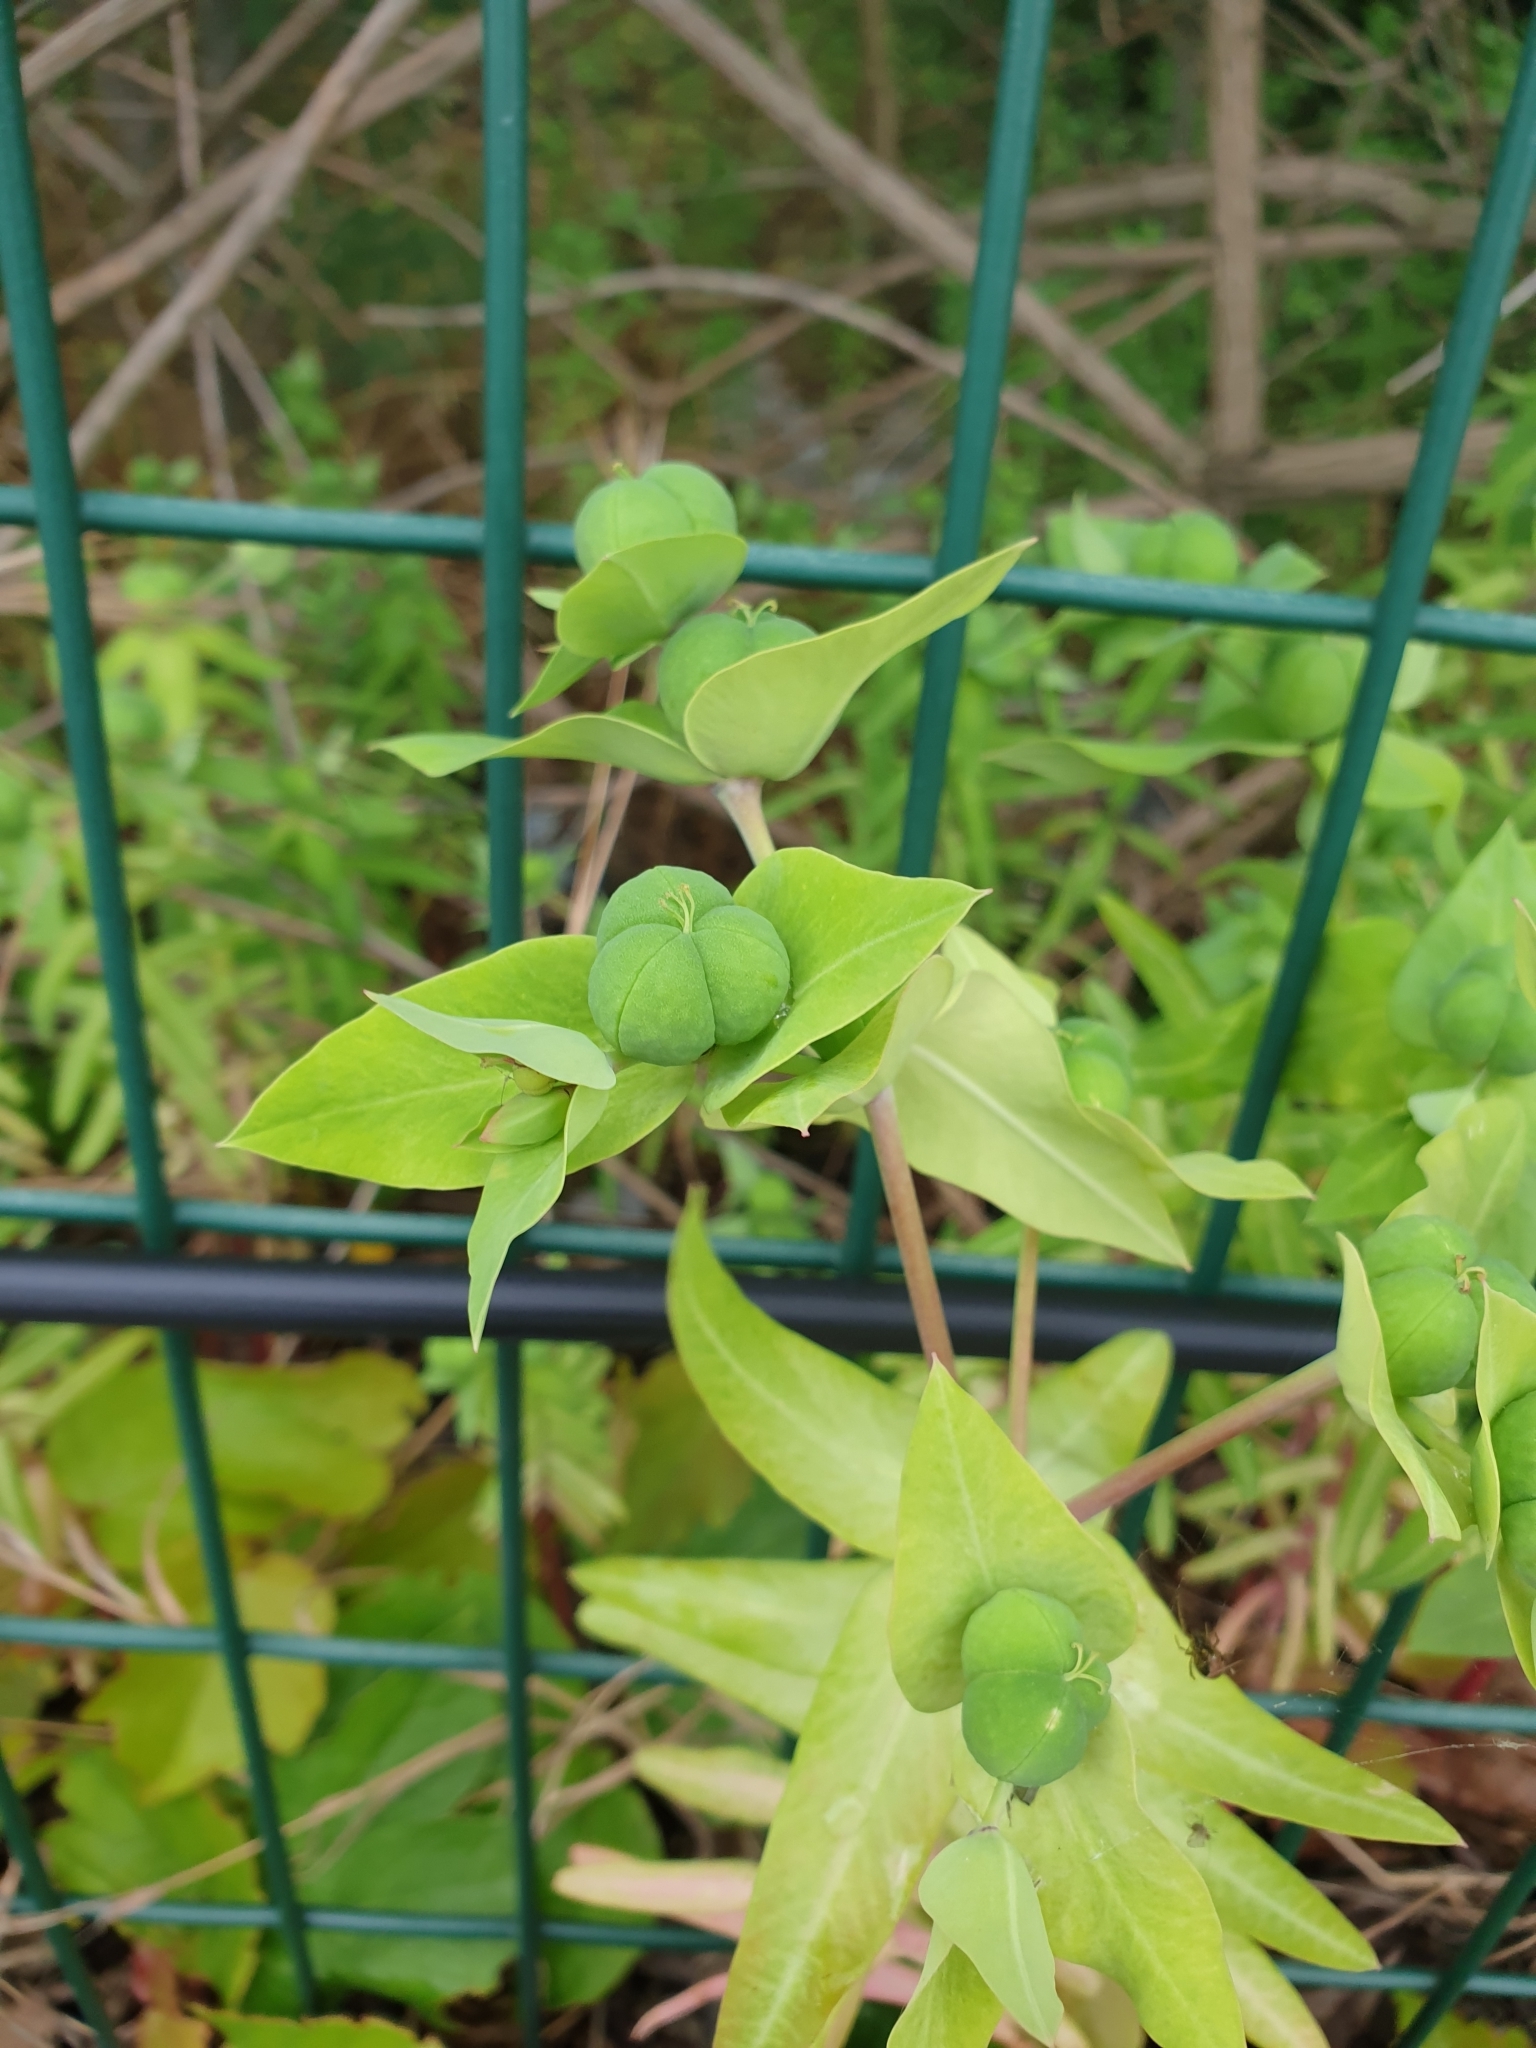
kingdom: Plantae
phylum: Tracheophyta
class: Magnoliopsida
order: Malpighiales
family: Euphorbiaceae
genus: Euphorbia
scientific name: Euphorbia lathyris
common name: Caper spurge
